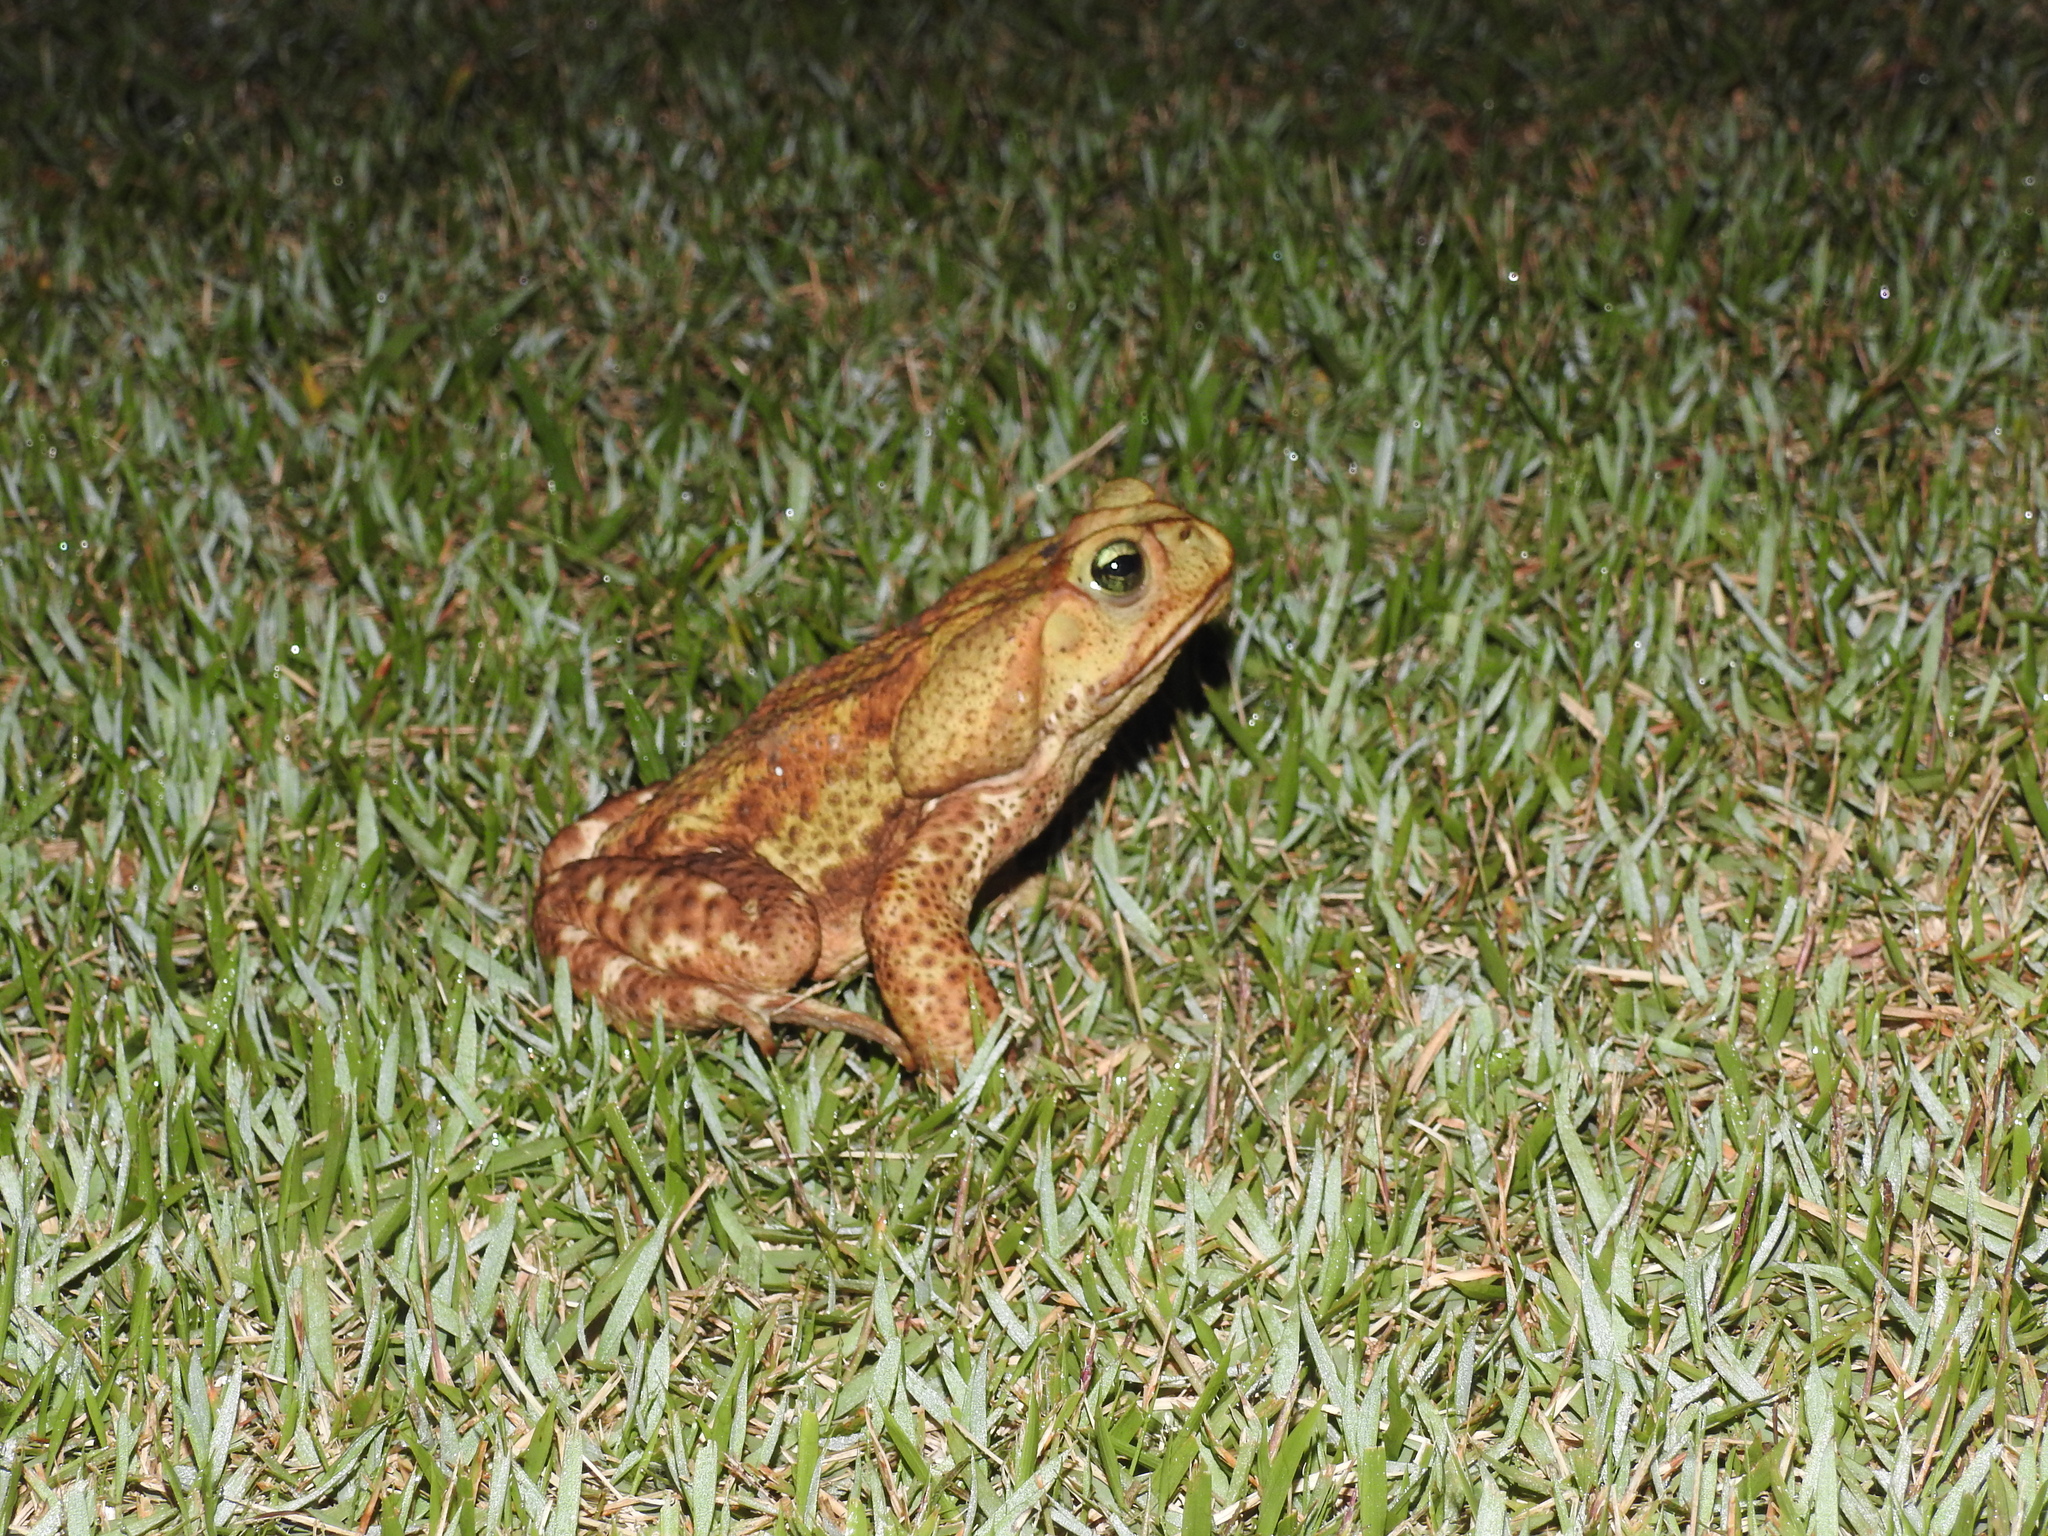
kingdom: Animalia
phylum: Chordata
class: Amphibia
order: Anura
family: Bufonidae
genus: Rhinella
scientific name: Rhinella icterica
